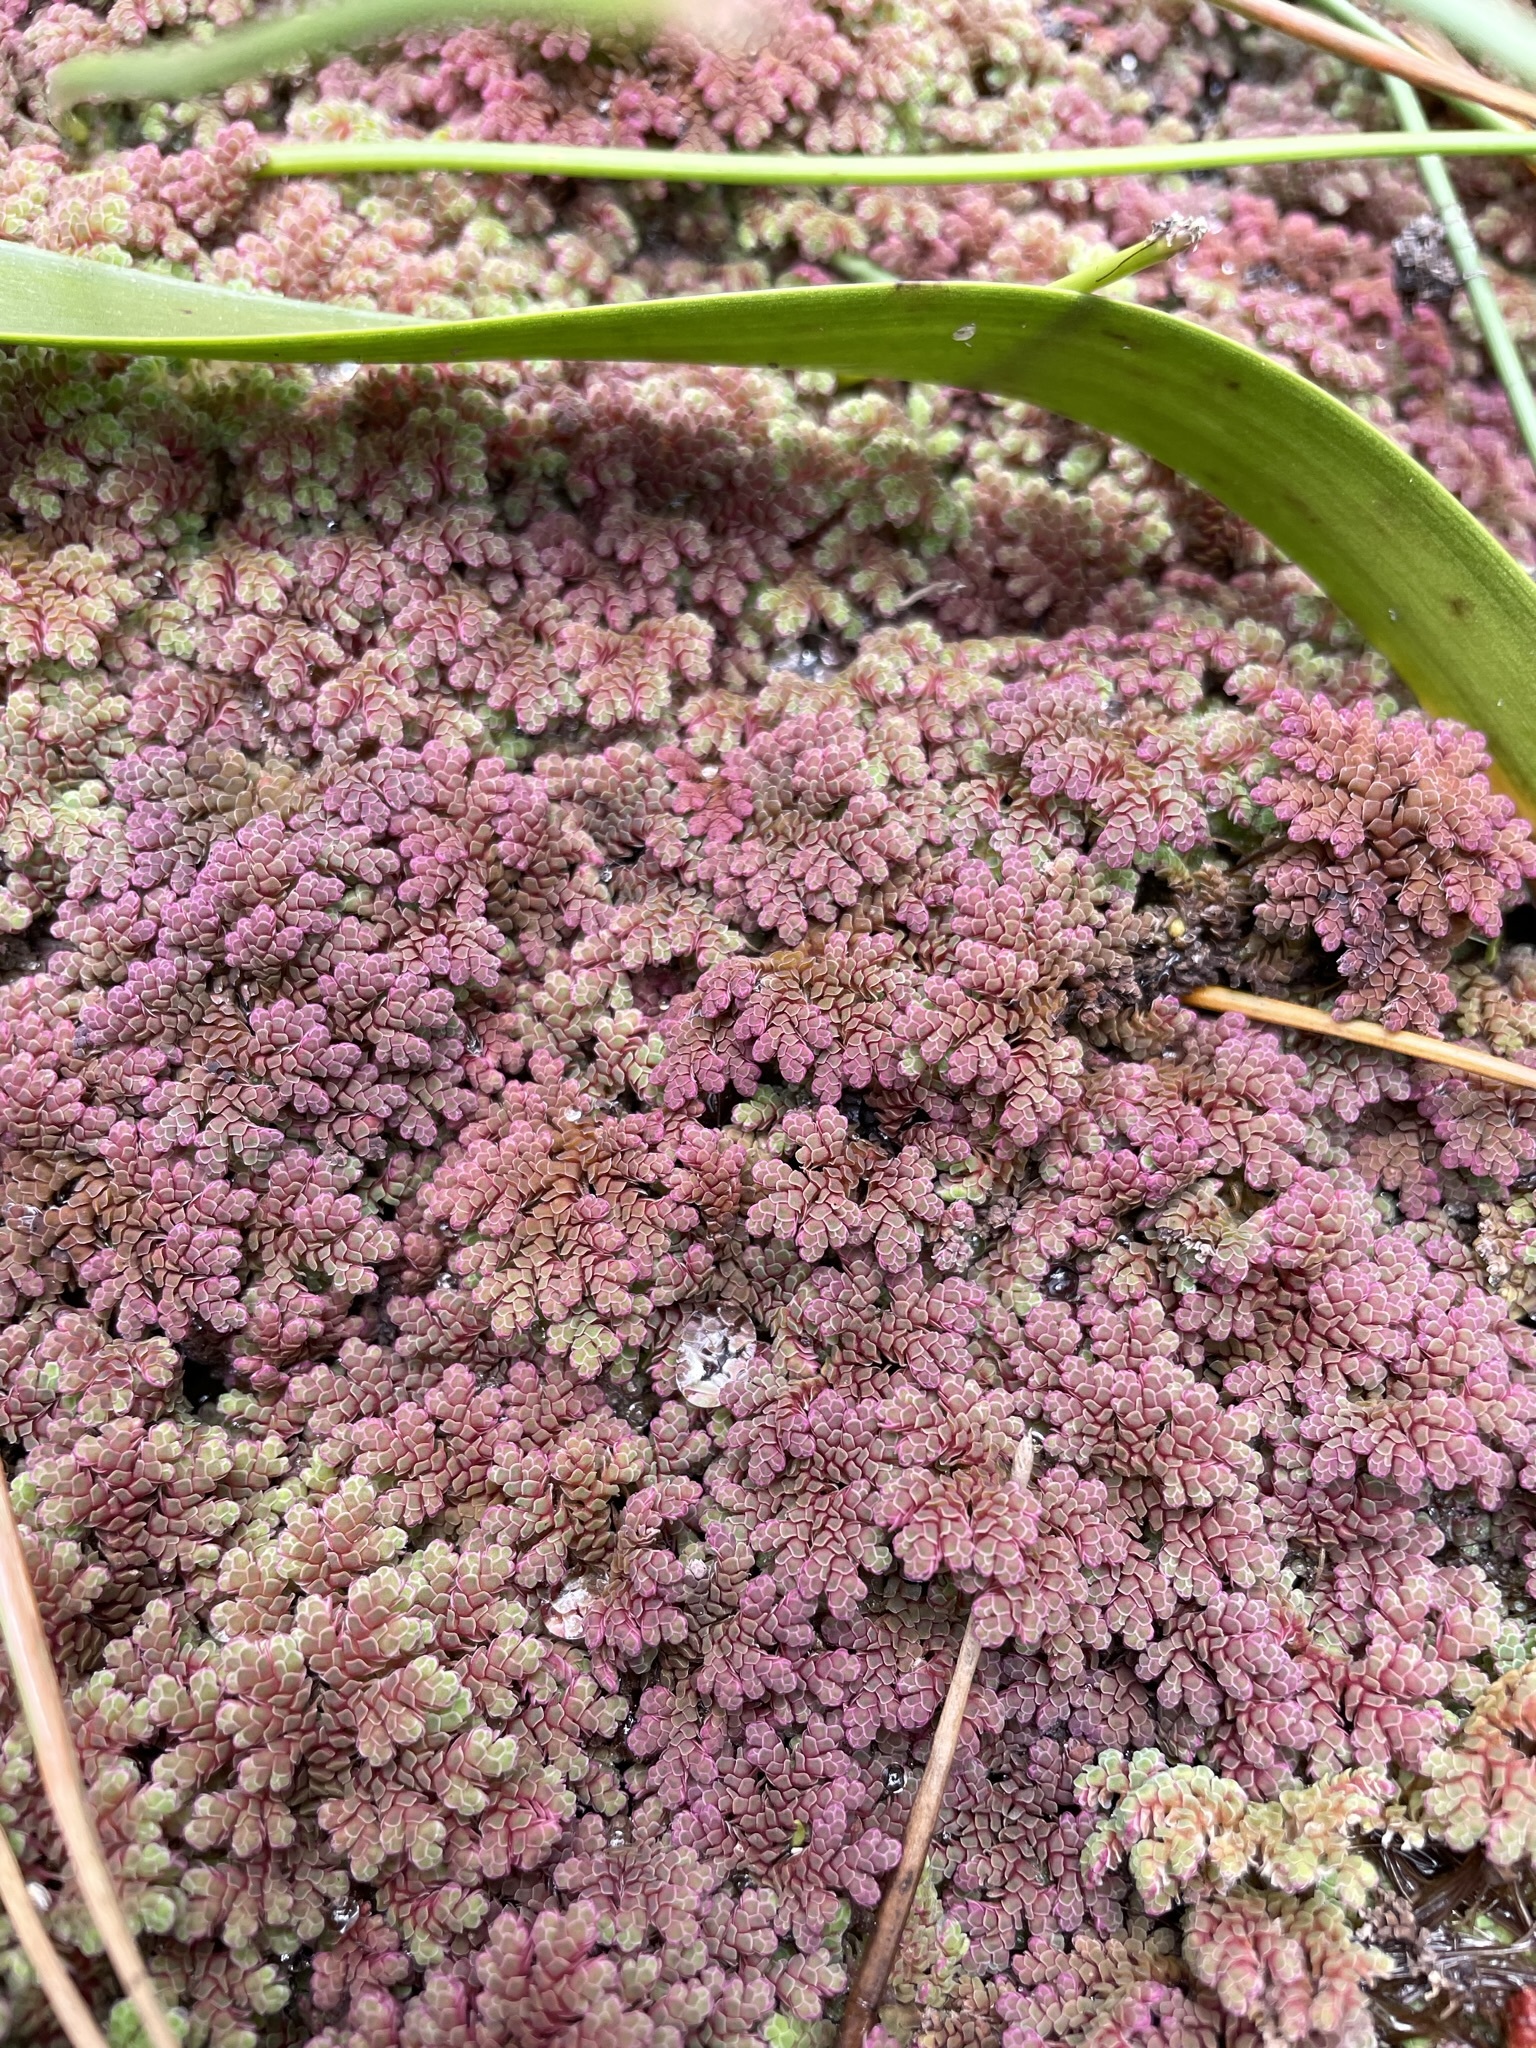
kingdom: Plantae
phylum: Tracheophyta
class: Polypodiopsida
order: Salviniales
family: Salviniaceae
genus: Azolla
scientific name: Azolla rubra
